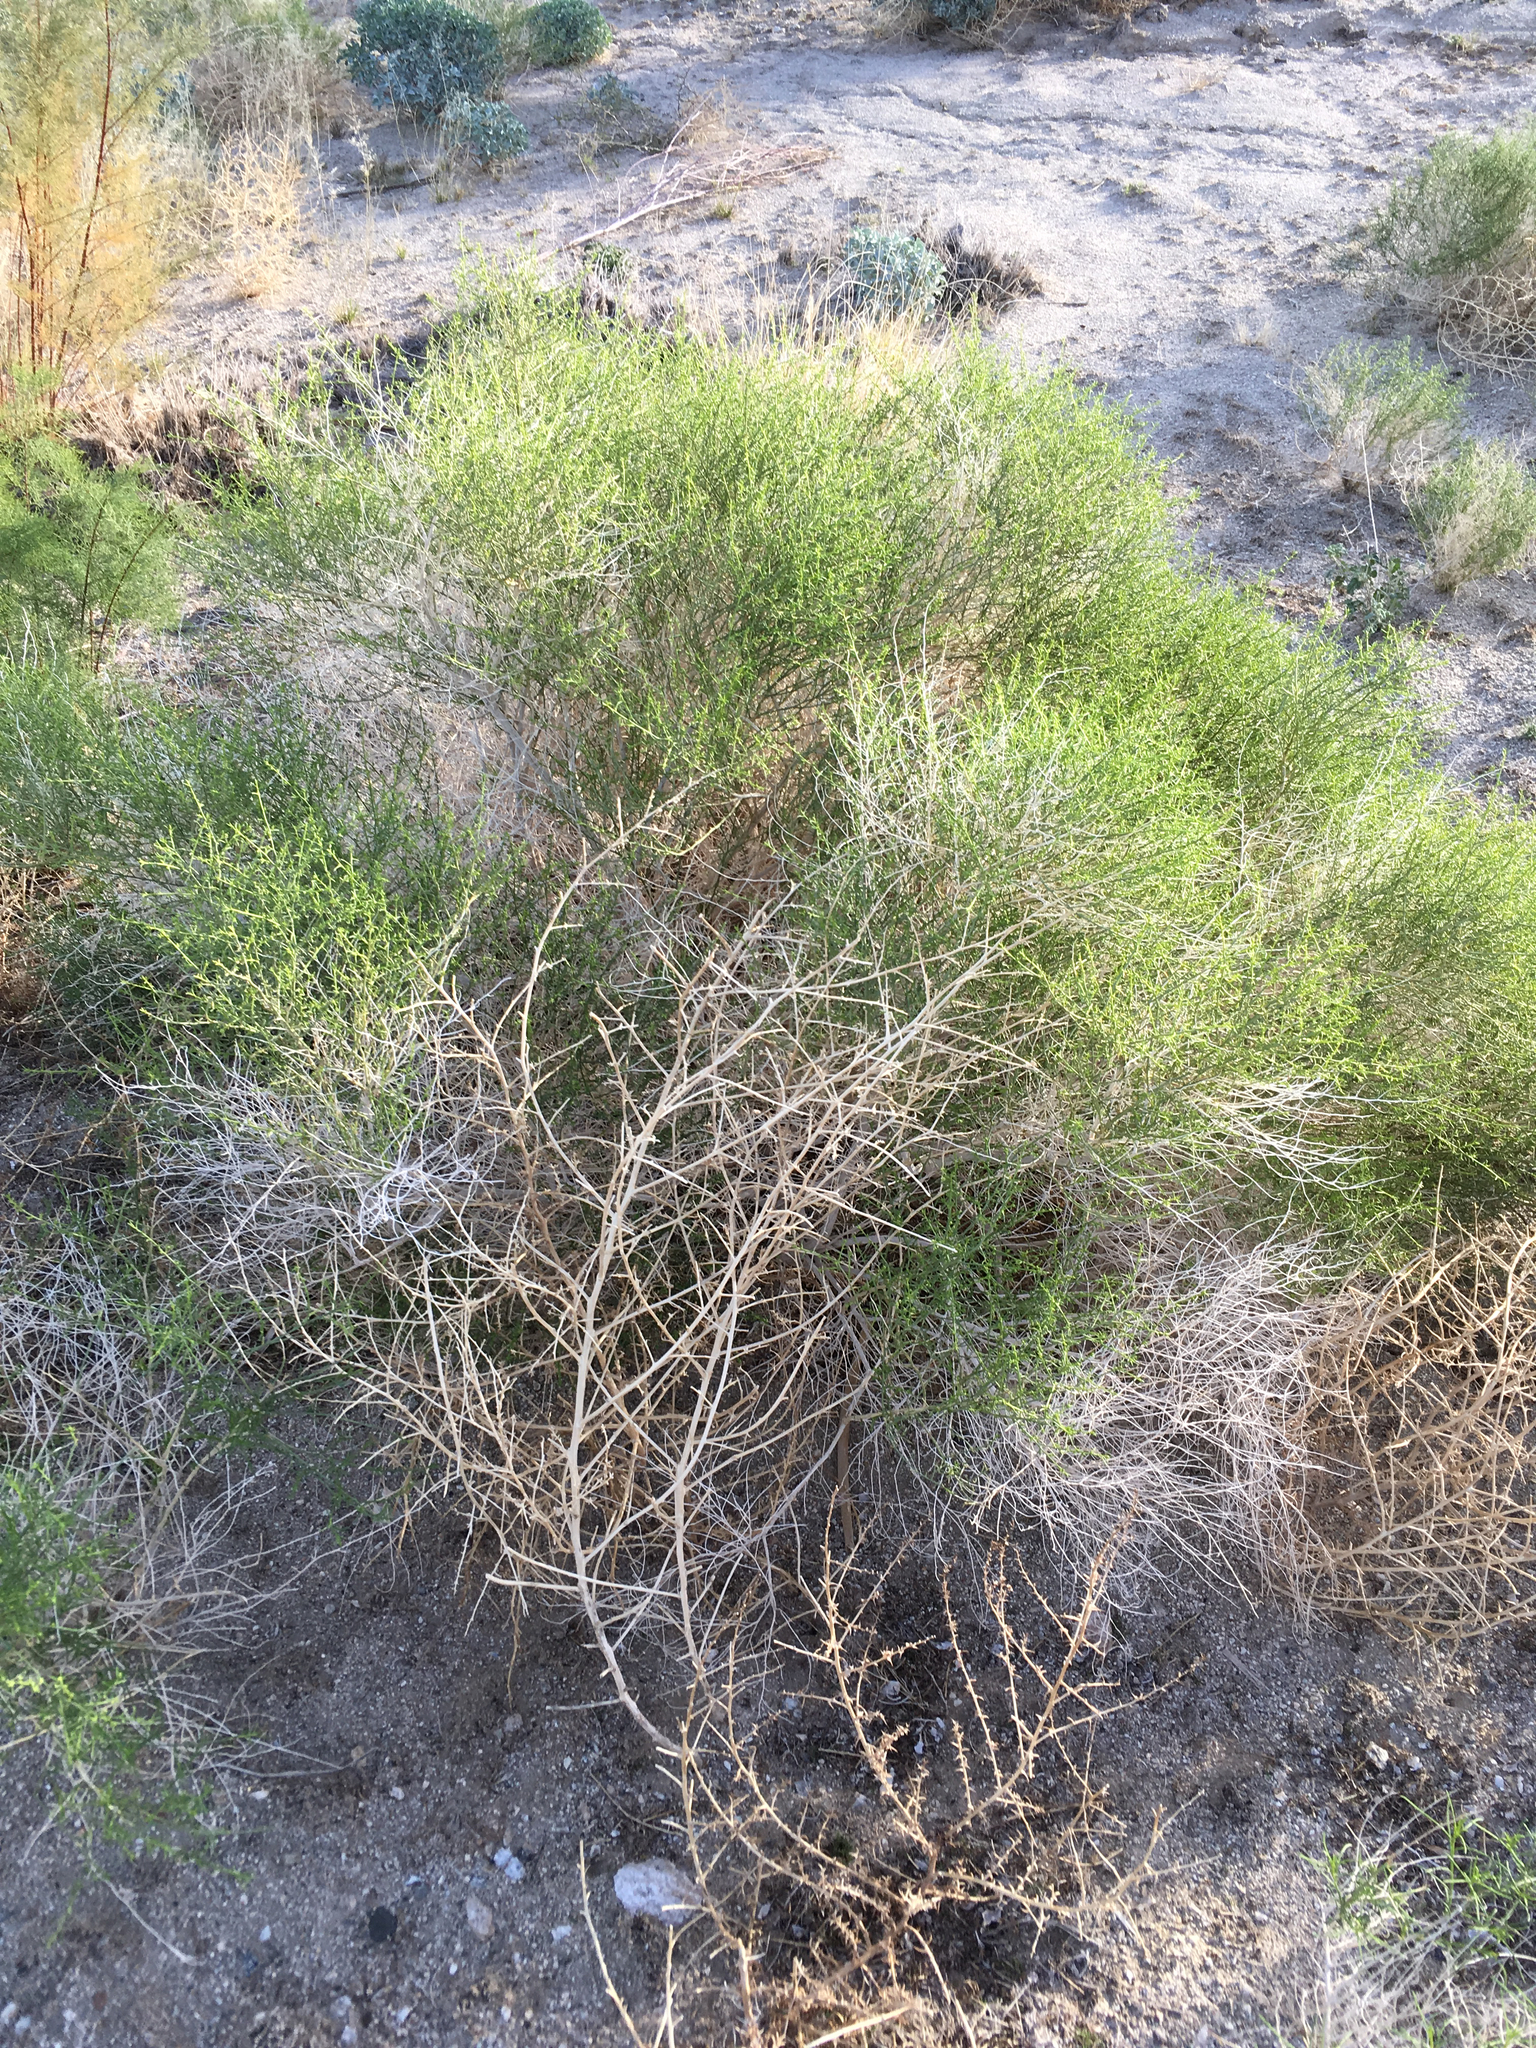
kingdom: Plantae
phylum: Tracheophyta
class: Magnoliopsida
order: Asterales
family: Asteraceae
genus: Ambrosia
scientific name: Ambrosia salsola
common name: Burrobrush
